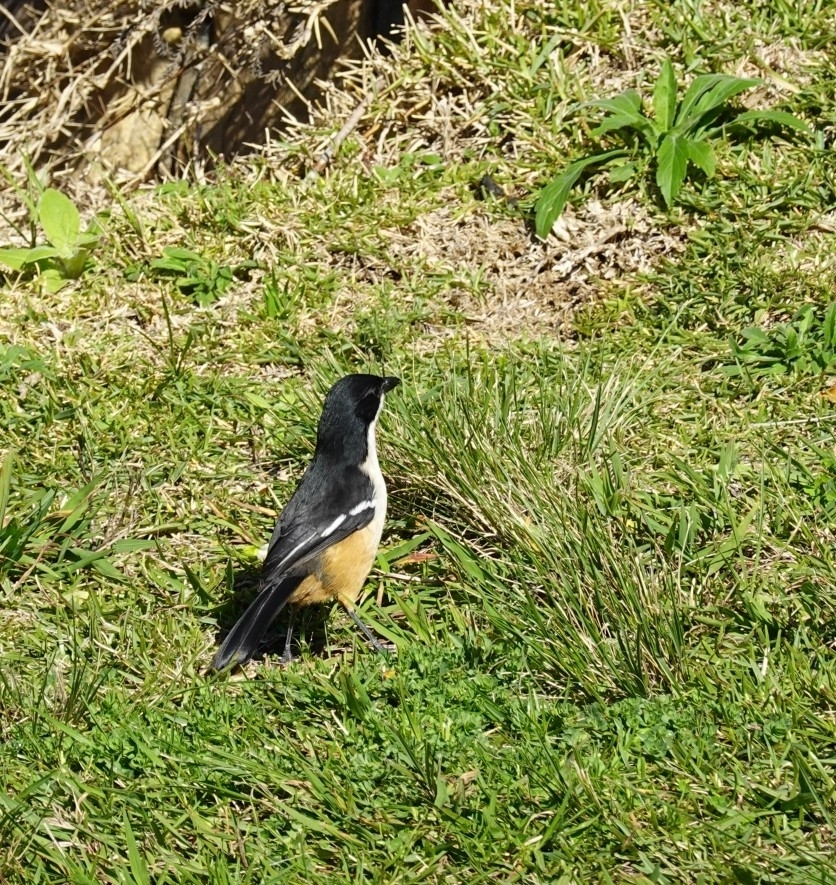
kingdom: Animalia
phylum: Chordata
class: Aves
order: Passeriformes
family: Malaconotidae
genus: Laniarius
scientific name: Laniarius ferrugineus
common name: Southern boubou
